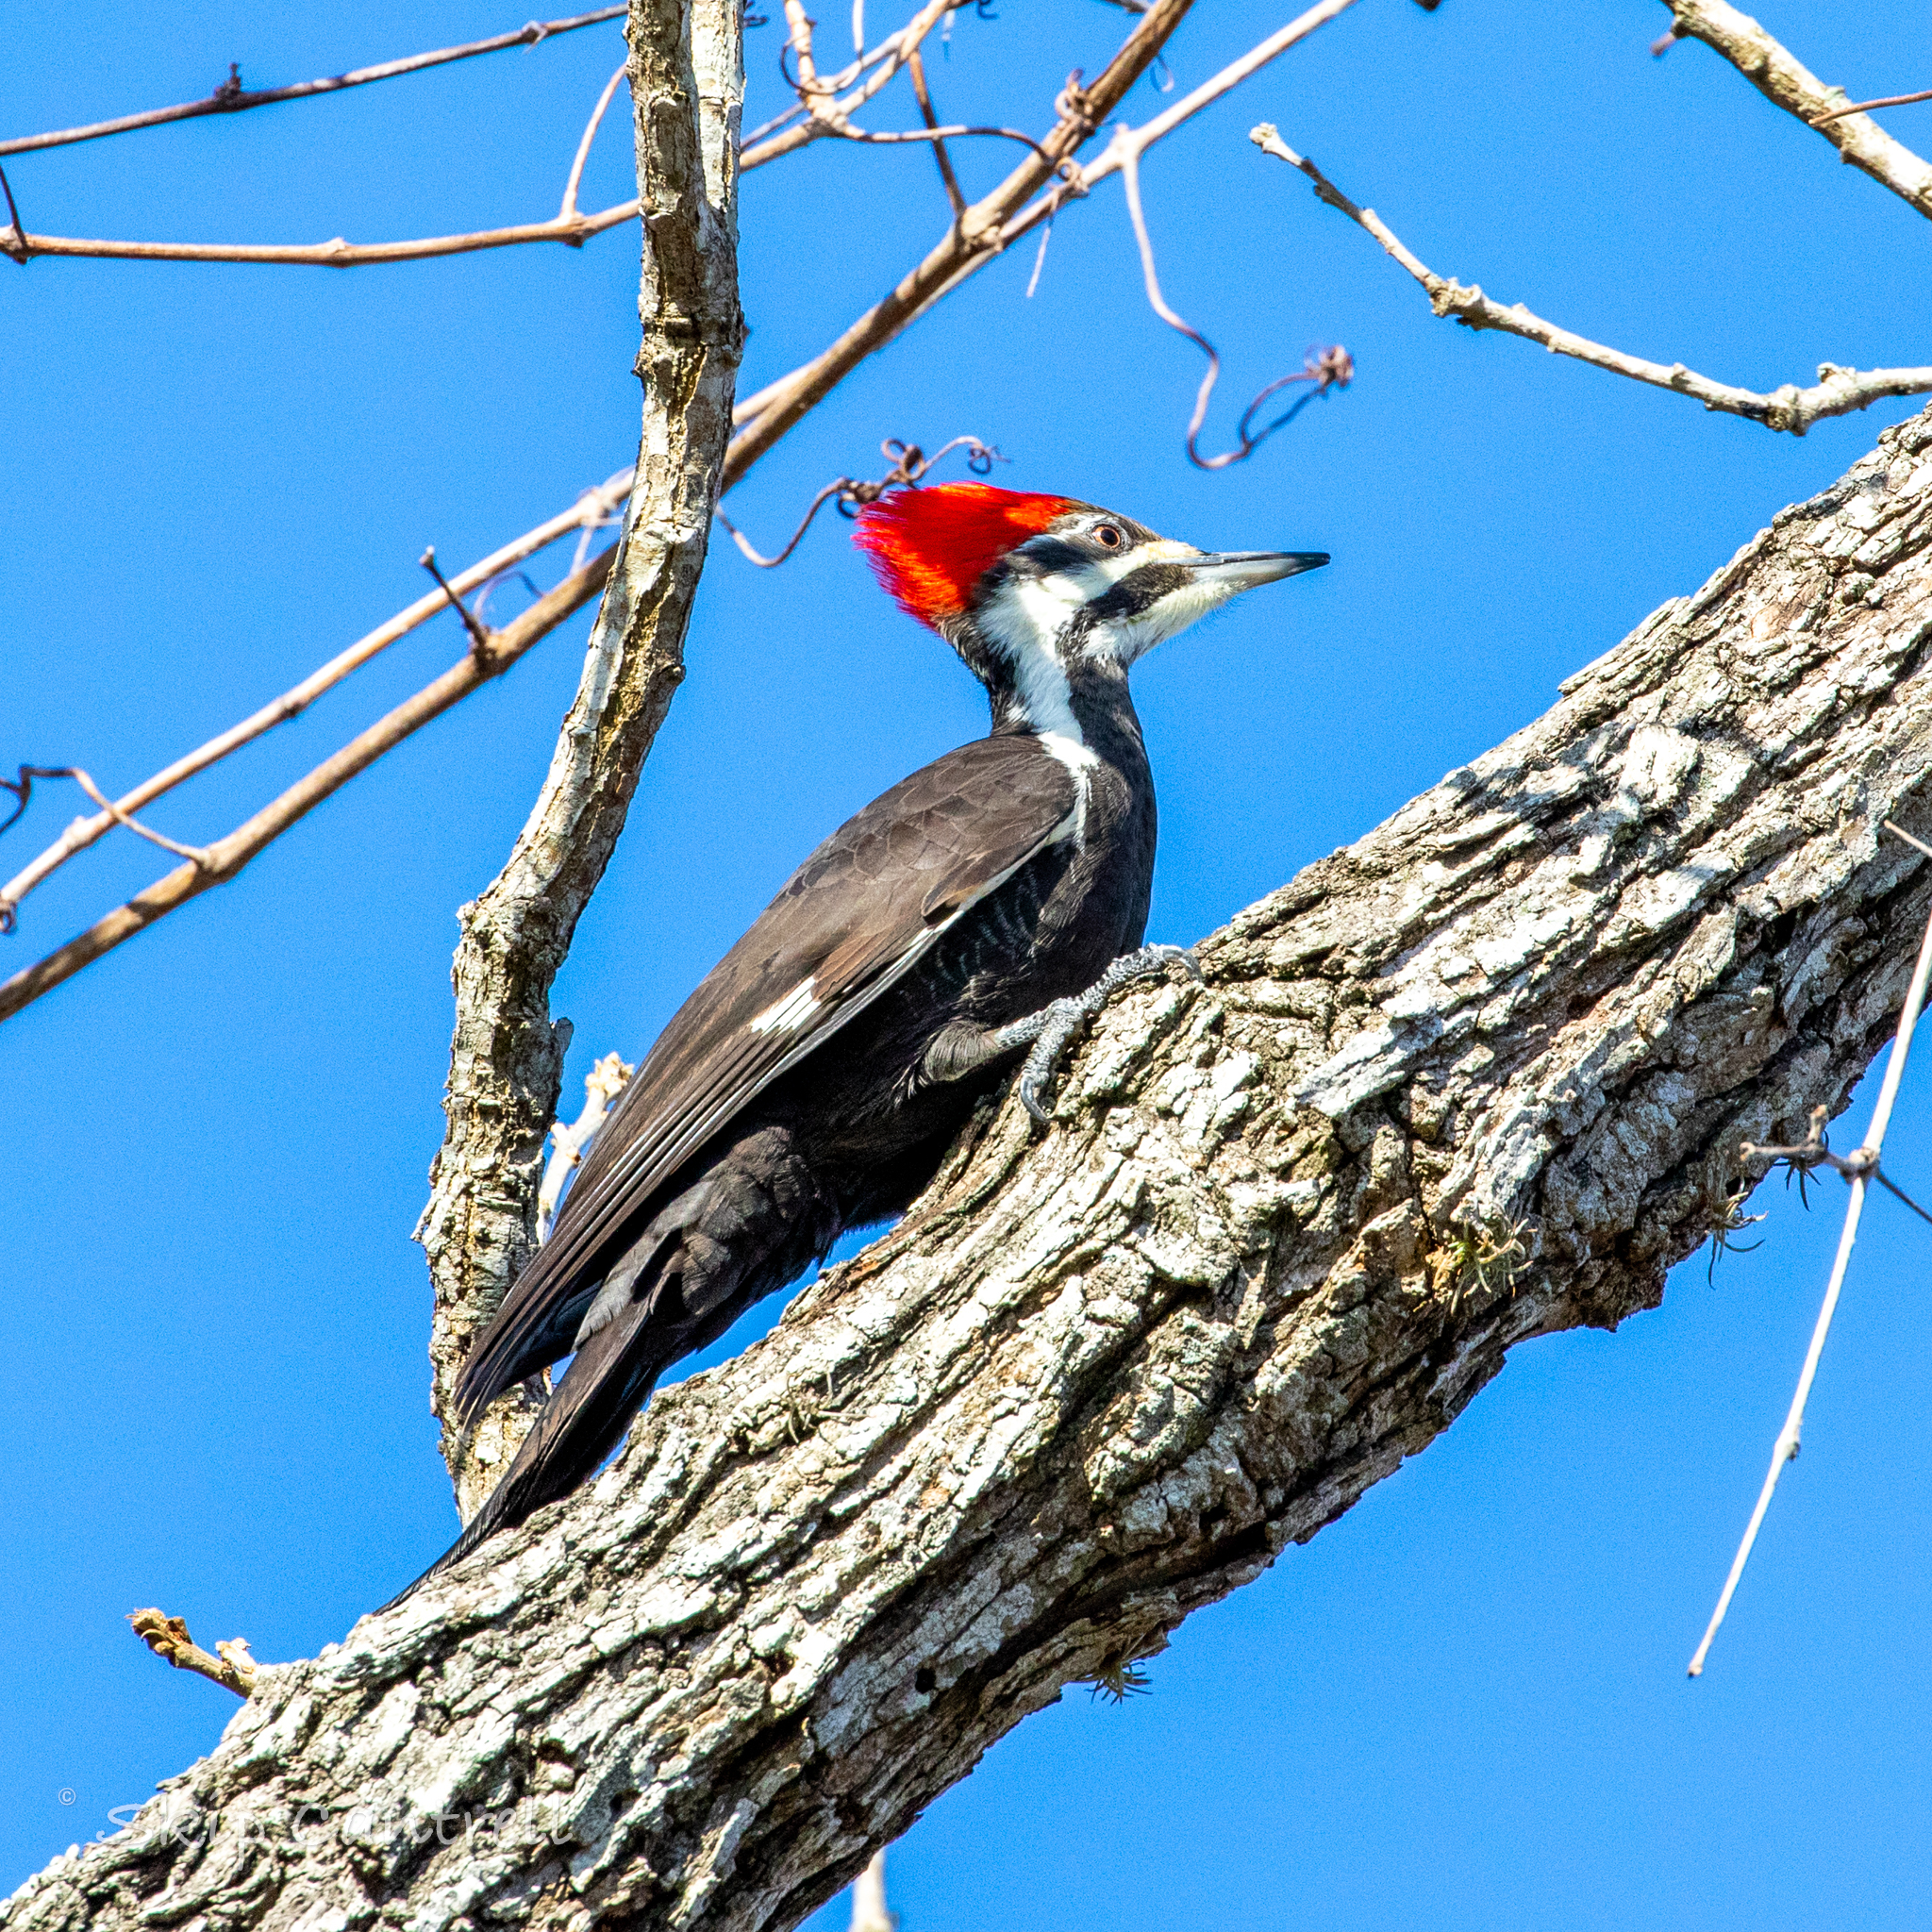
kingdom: Animalia
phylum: Chordata
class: Aves
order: Piciformes
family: Picidae
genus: Dryocopus
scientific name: Dryocopus pileatus
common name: Pileated woodpecker
